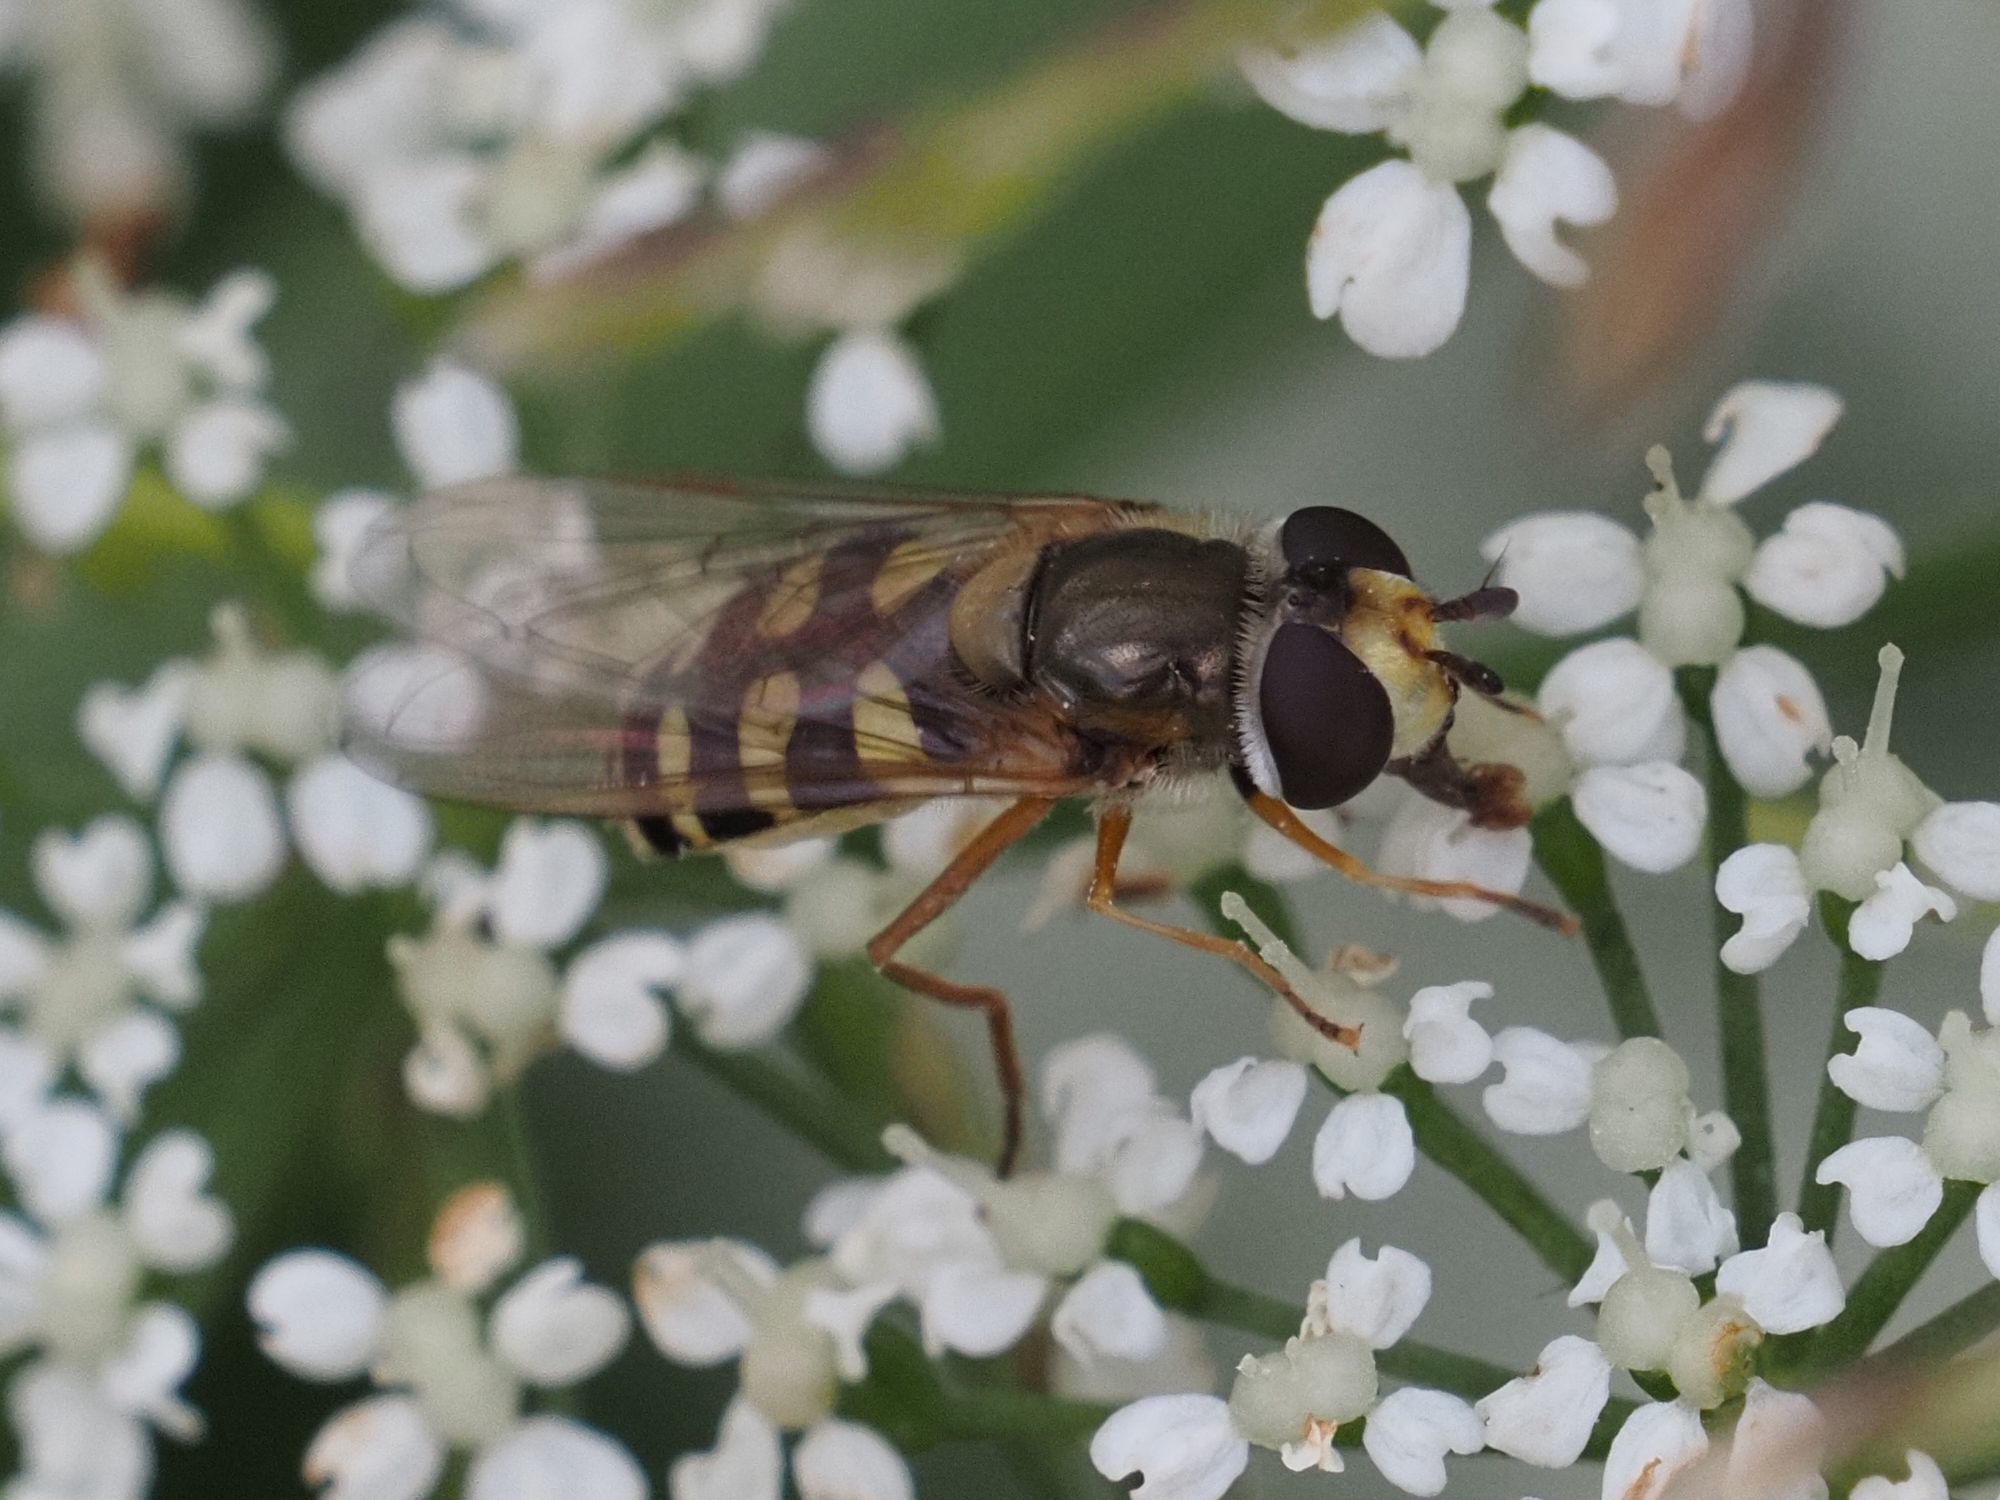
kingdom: Animalia
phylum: Arthropoda
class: Insecta
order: Diptera
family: Syrphidae
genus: Eupeodes
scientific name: Eupeodes corollae
